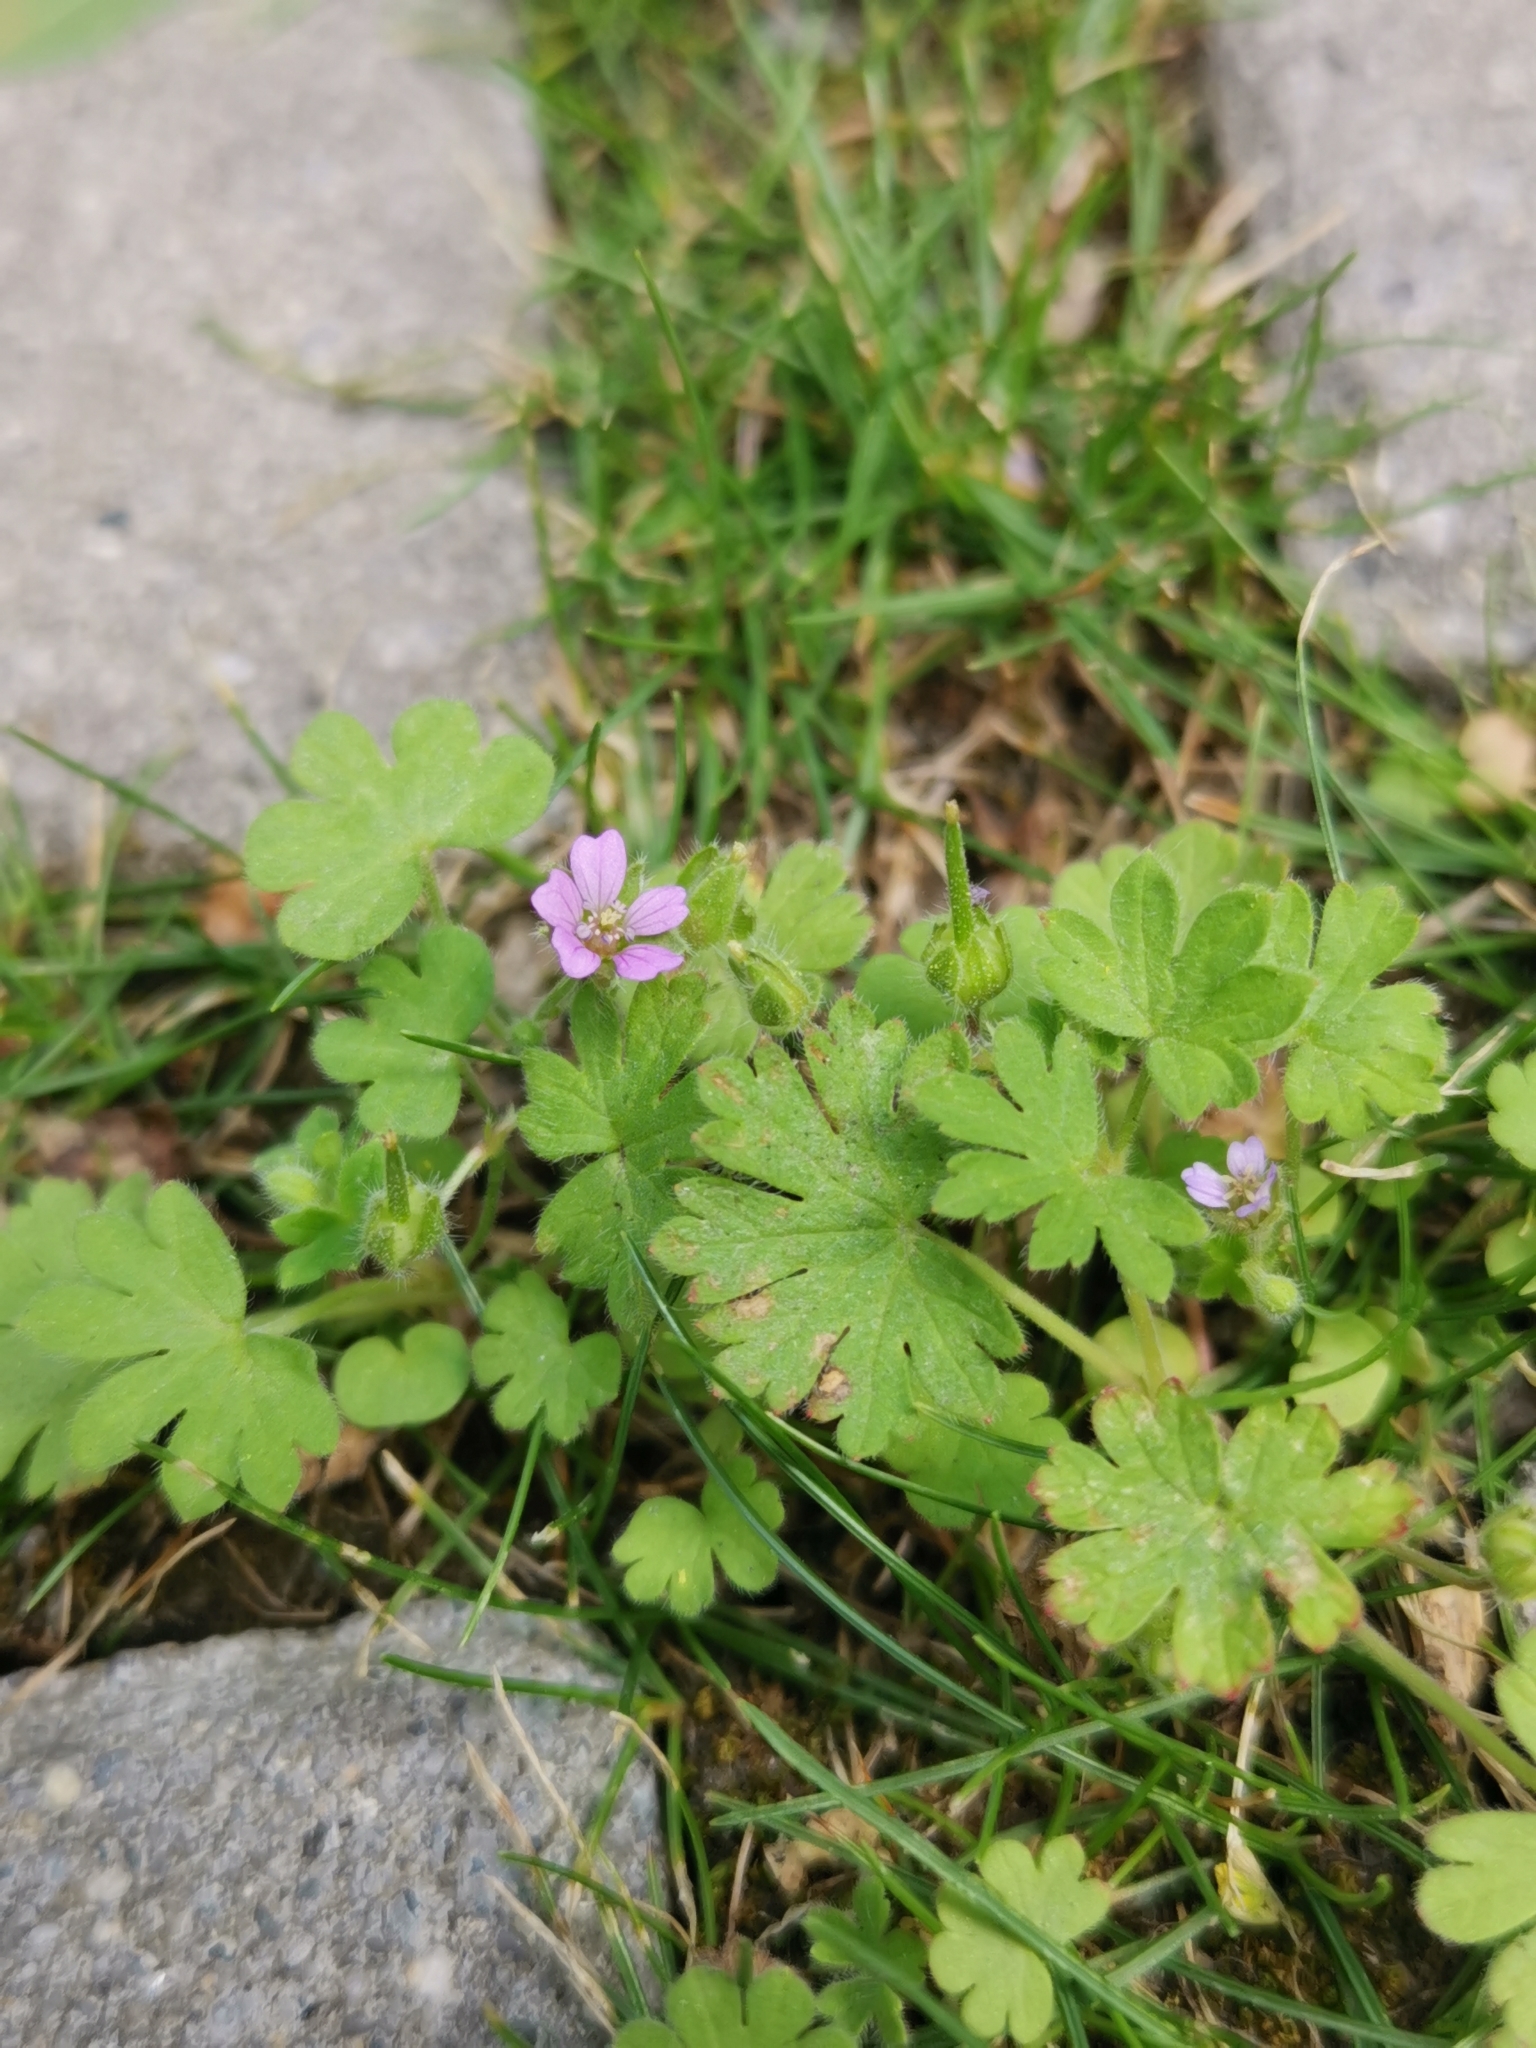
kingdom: Plantae
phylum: Tracheophyta
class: Magnoliopsida
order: Geraniales
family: Geraniaceae
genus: Geranium
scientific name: Geranium pusillum
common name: Small geranium
